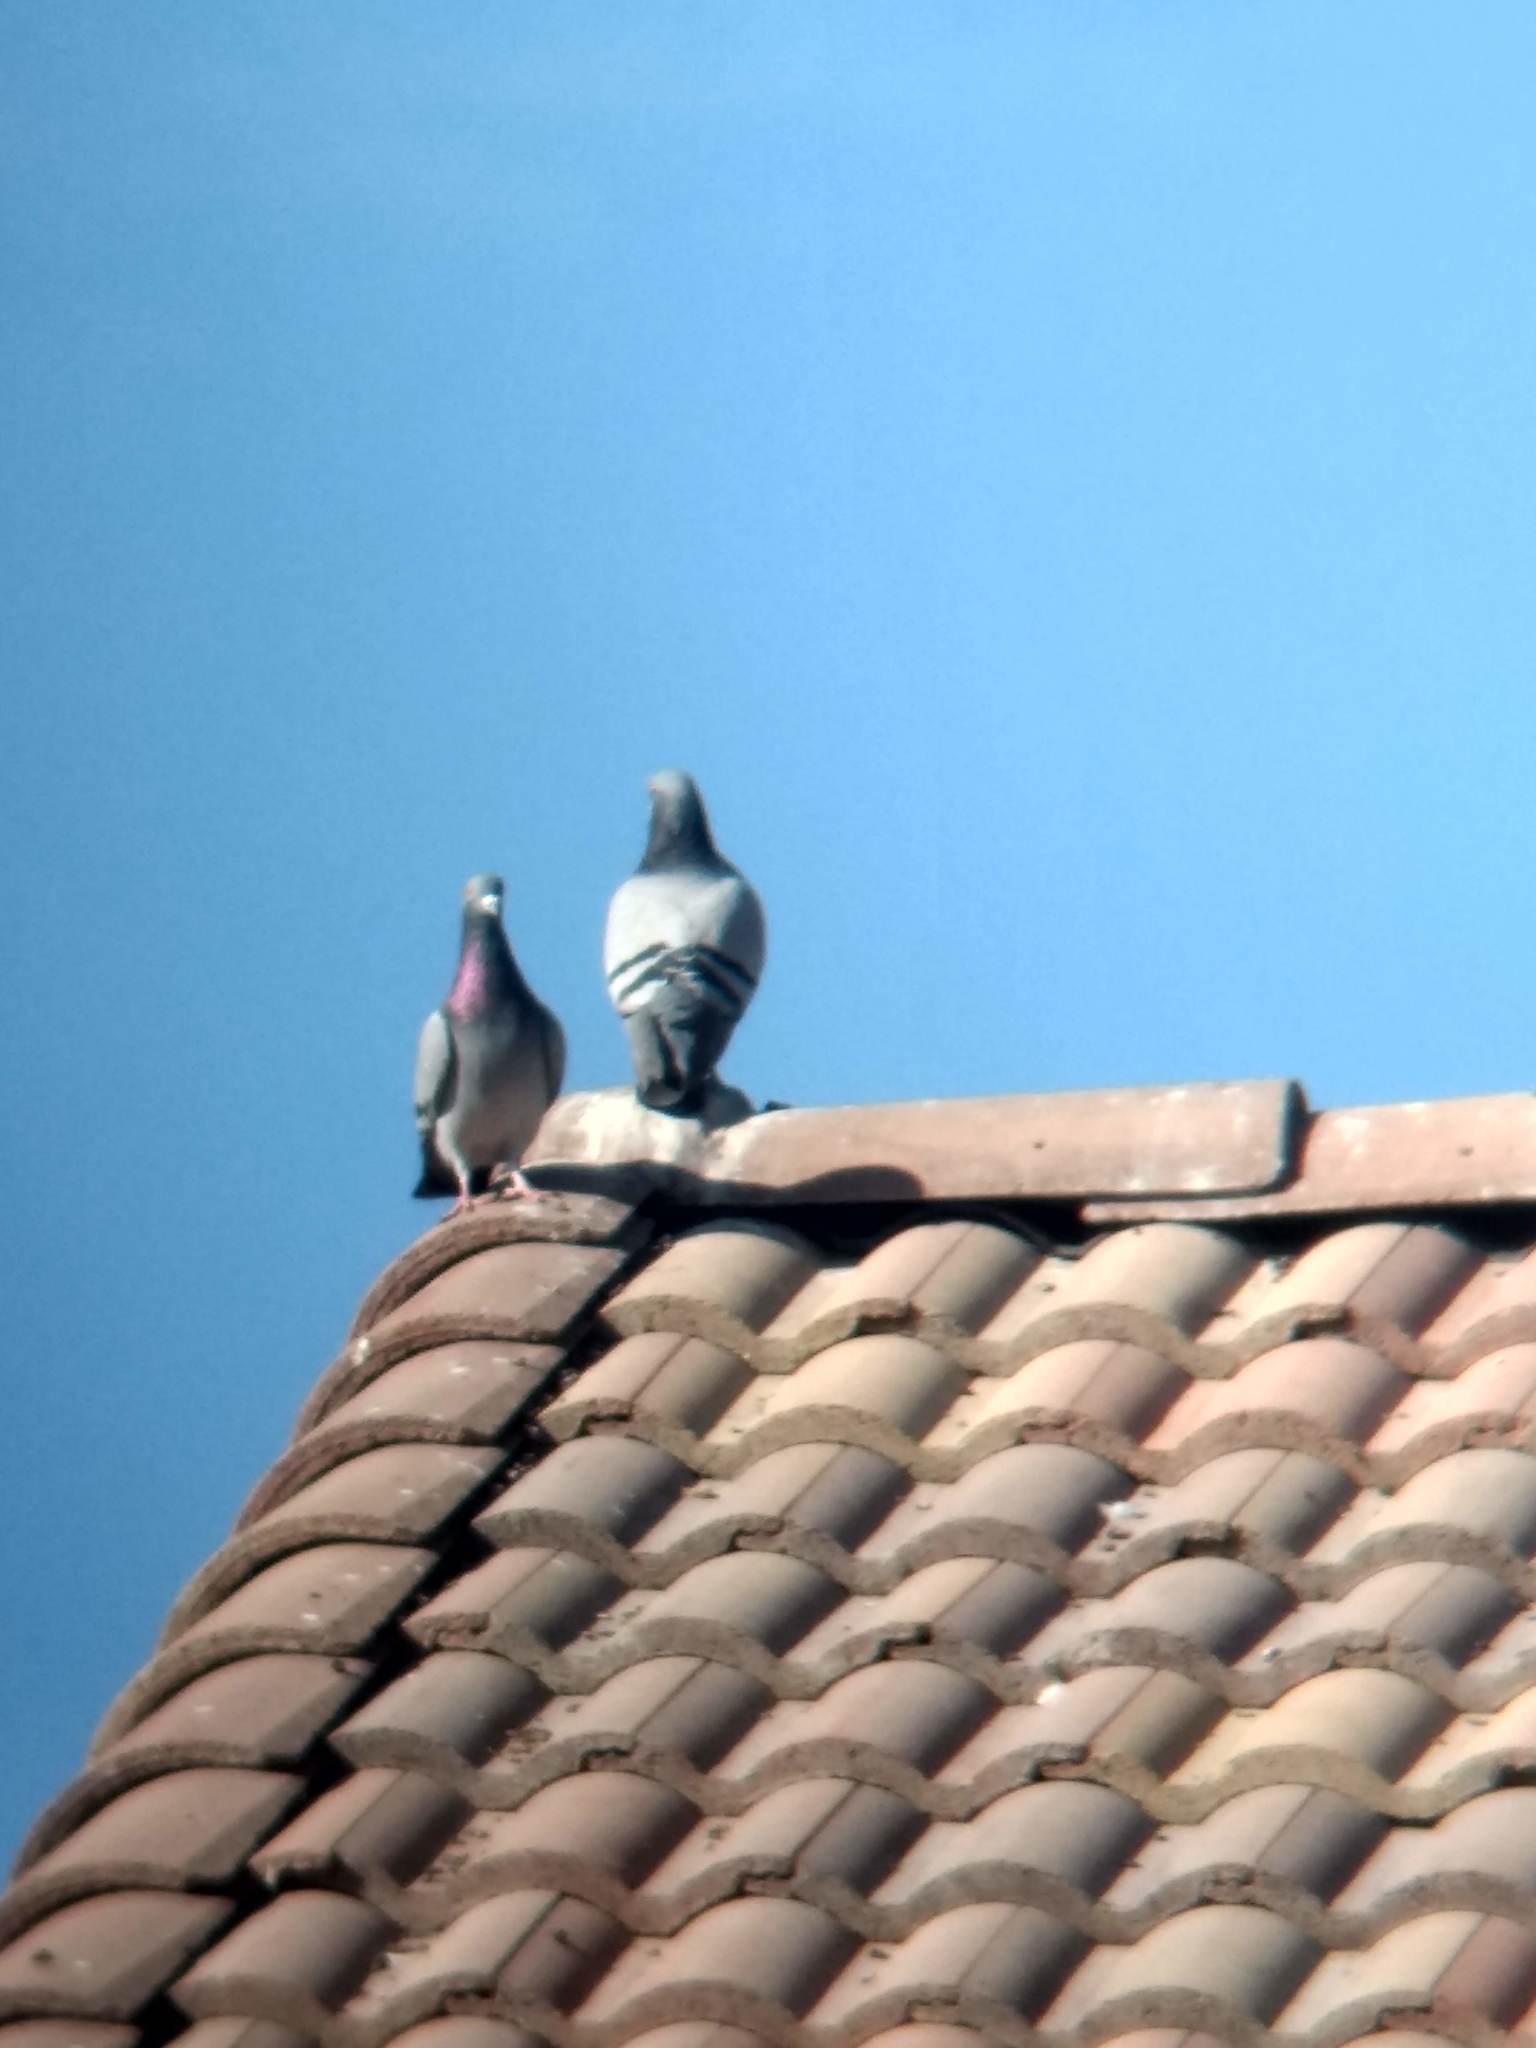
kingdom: Animalia
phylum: Chordata
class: Aves
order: Columbiformes
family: Columbidae
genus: Columba
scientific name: Columba livia
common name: Rock pigeon
